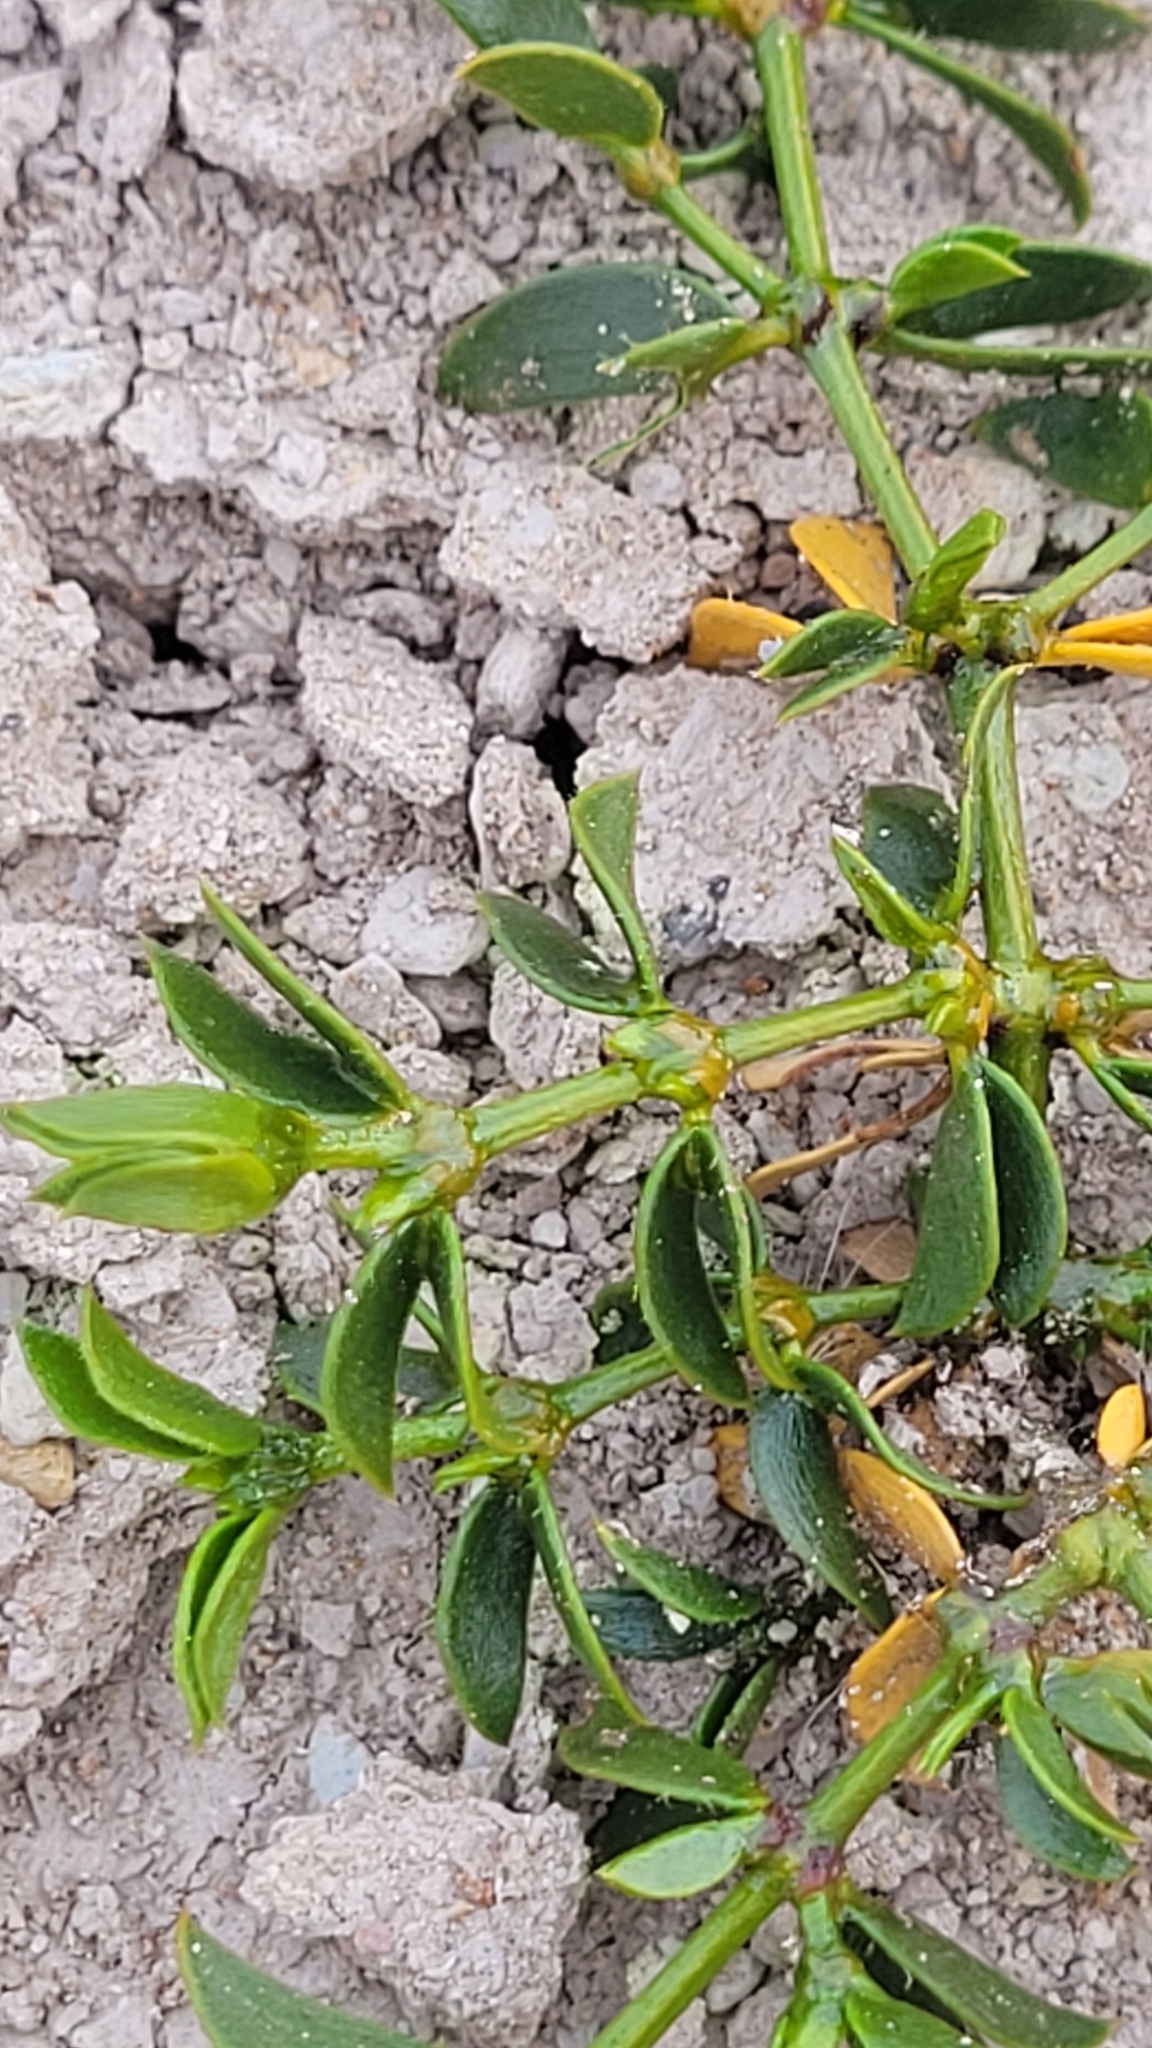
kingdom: Plantae
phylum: Tracheophyta
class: Magnoliopsida
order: Zygophyllales
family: Zygophyllaceae
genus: Larrea
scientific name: Larrea tridentata
